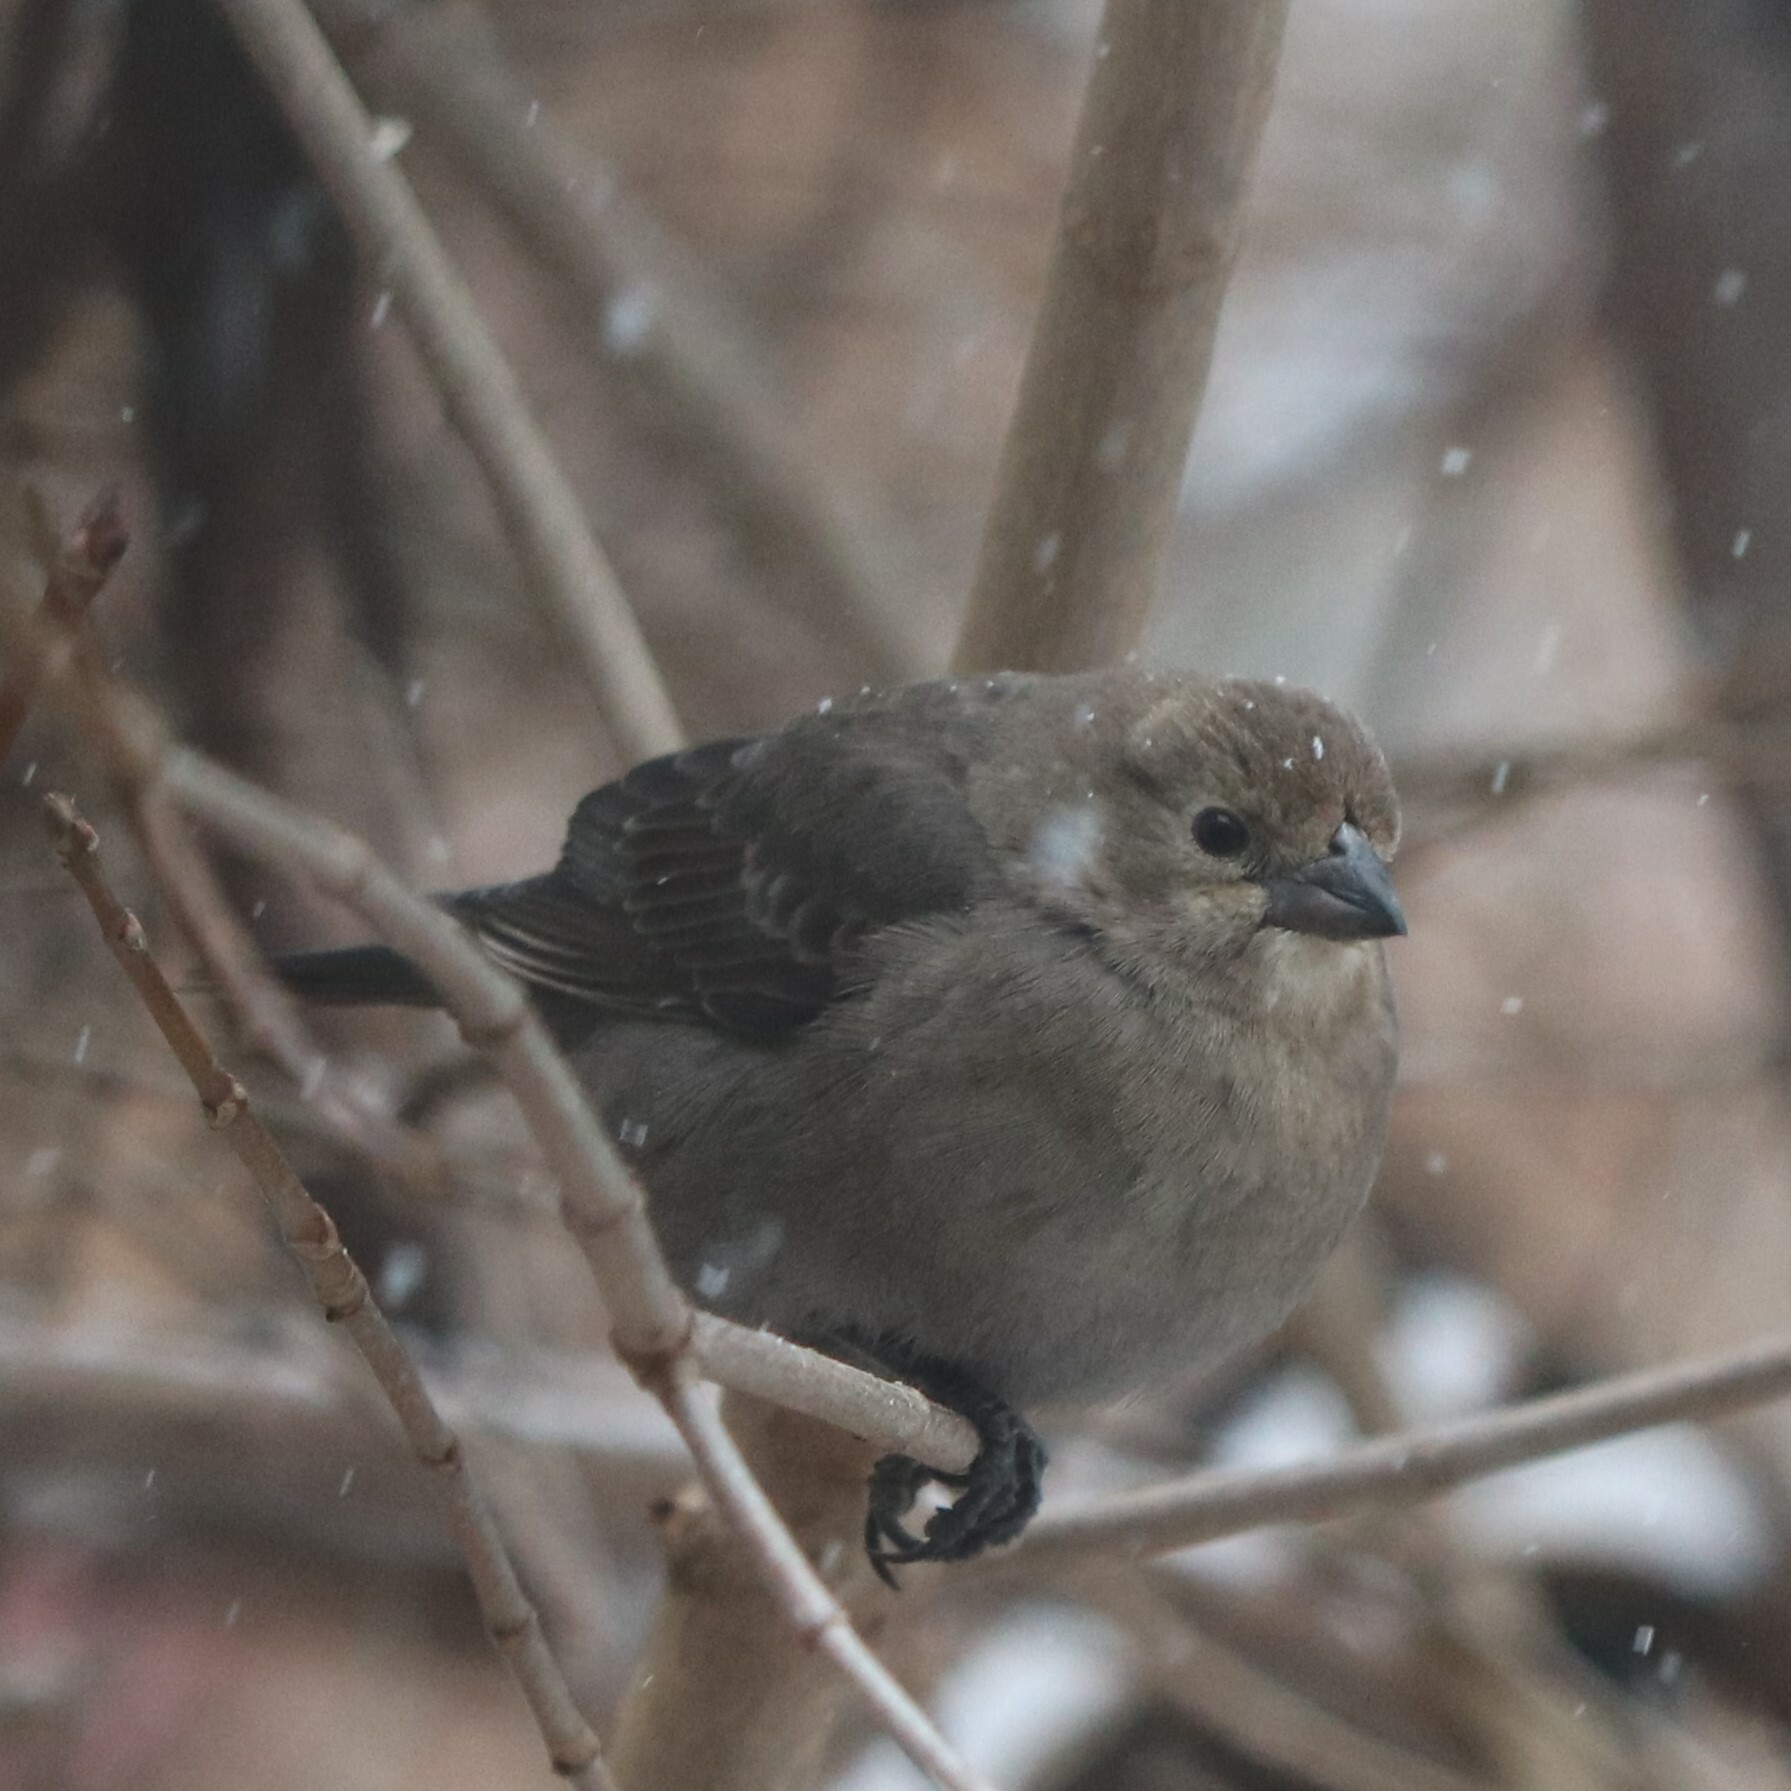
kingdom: Animalia
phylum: Chordata
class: Aves
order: Passeriformes
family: Icteridae
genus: Molothrus
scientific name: Molothrus ater
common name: Brown-headed cowbird
